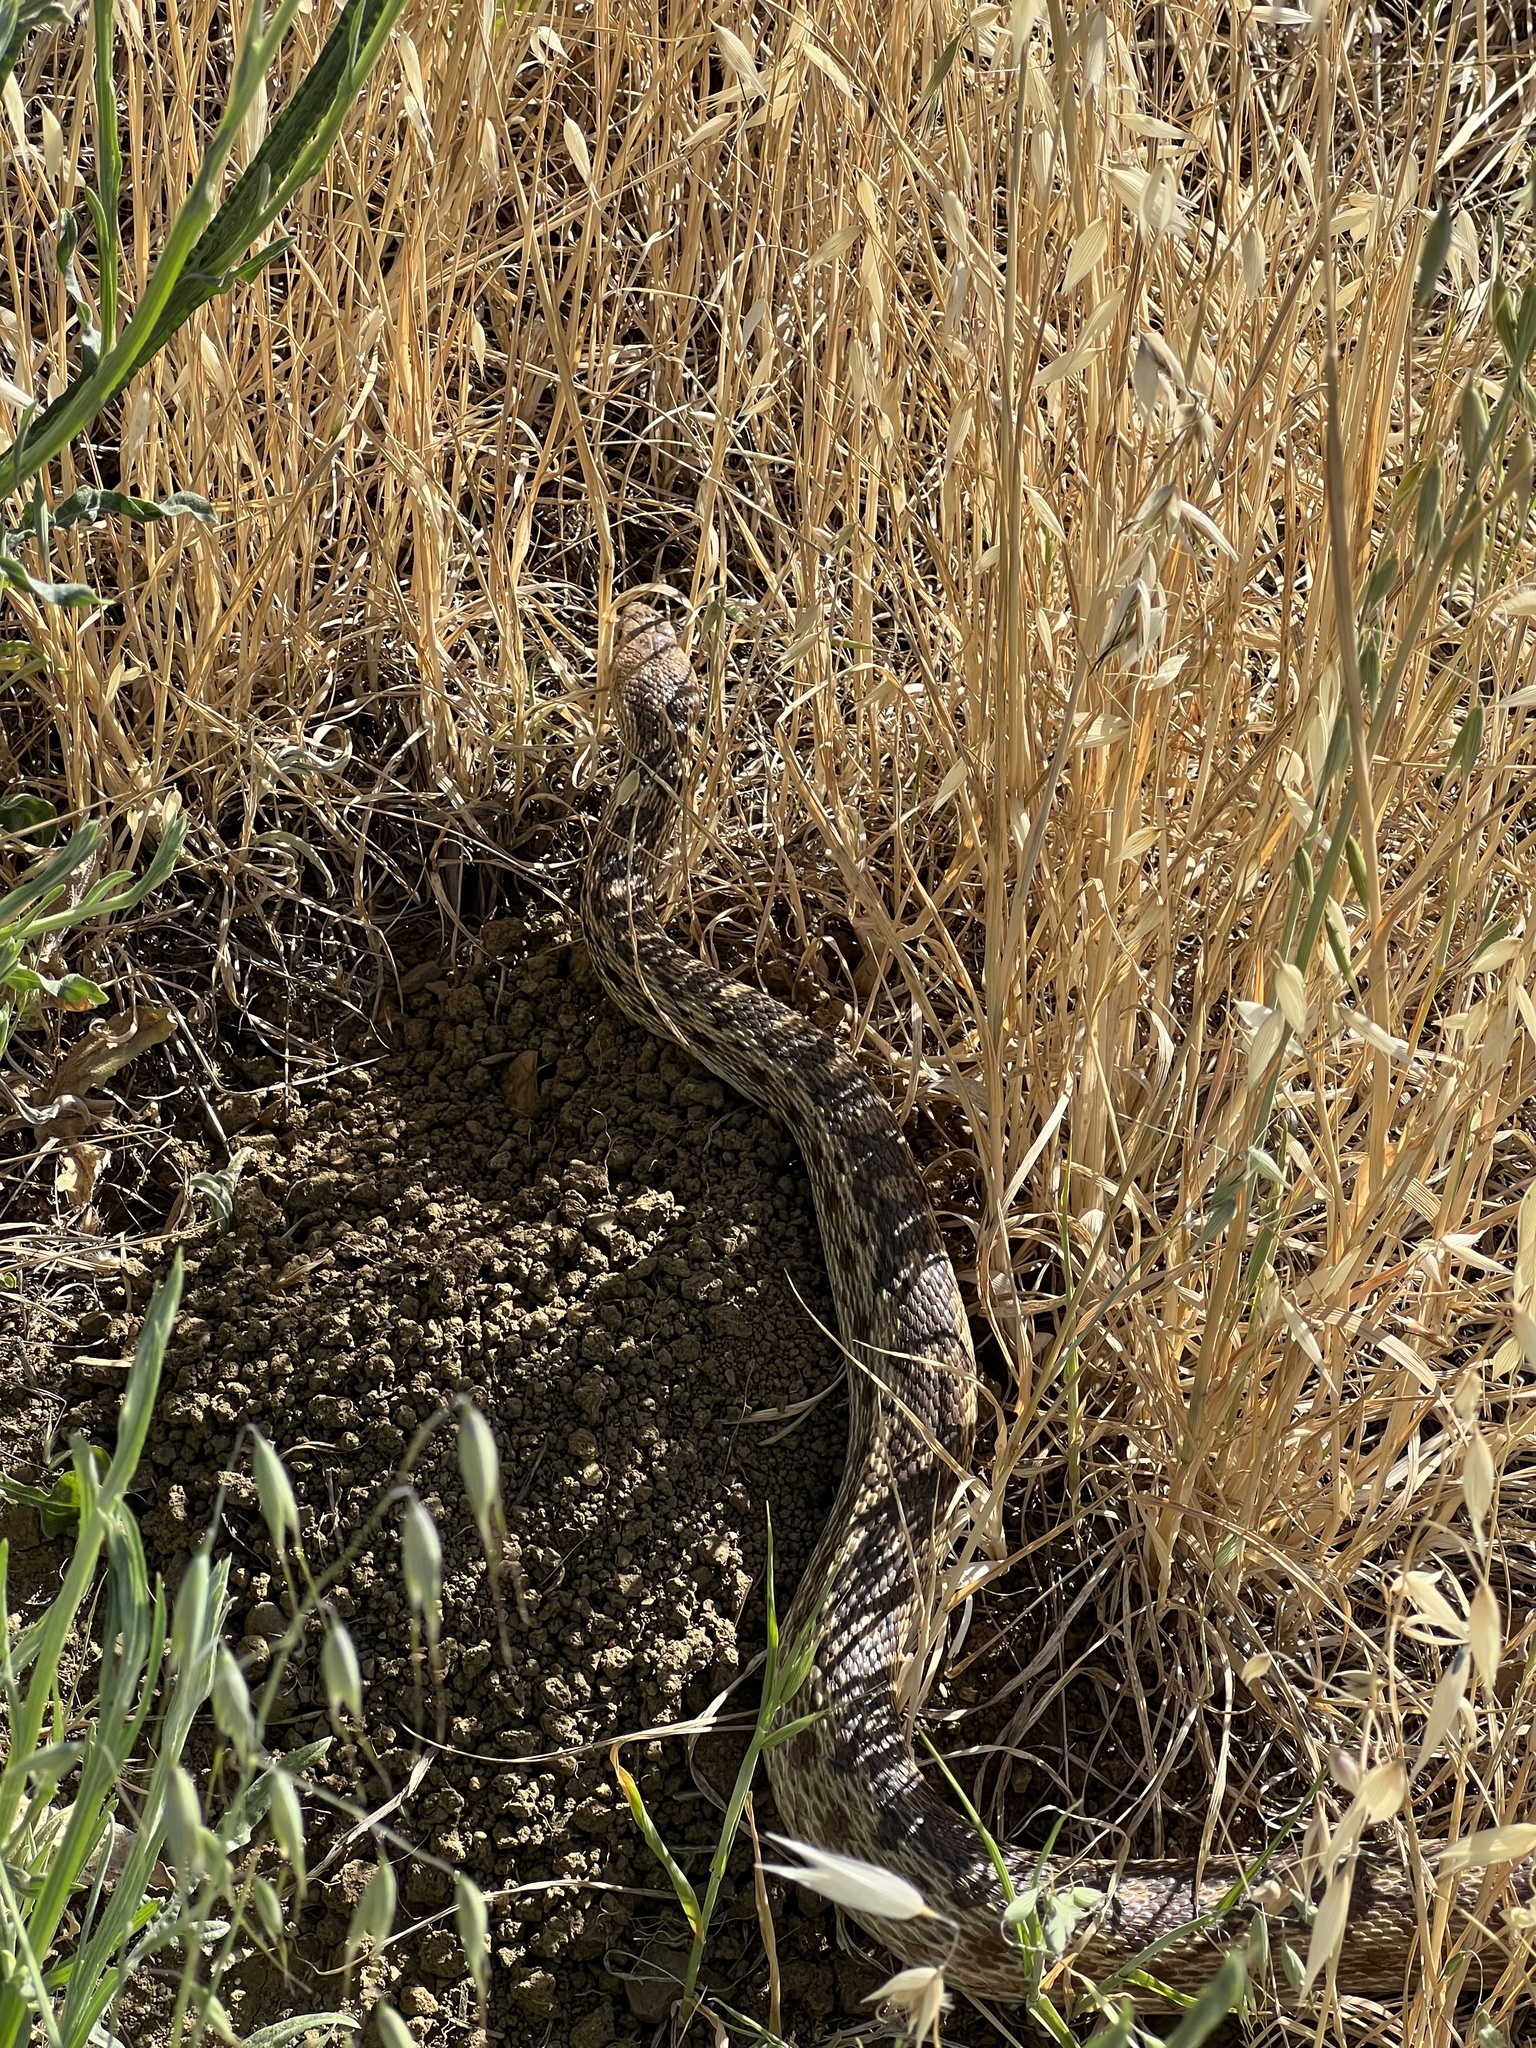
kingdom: Animalia
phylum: Chordata
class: Squamata
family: Colubridae
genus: Pituophis
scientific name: Pituophis catenifer
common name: Gopher snake
